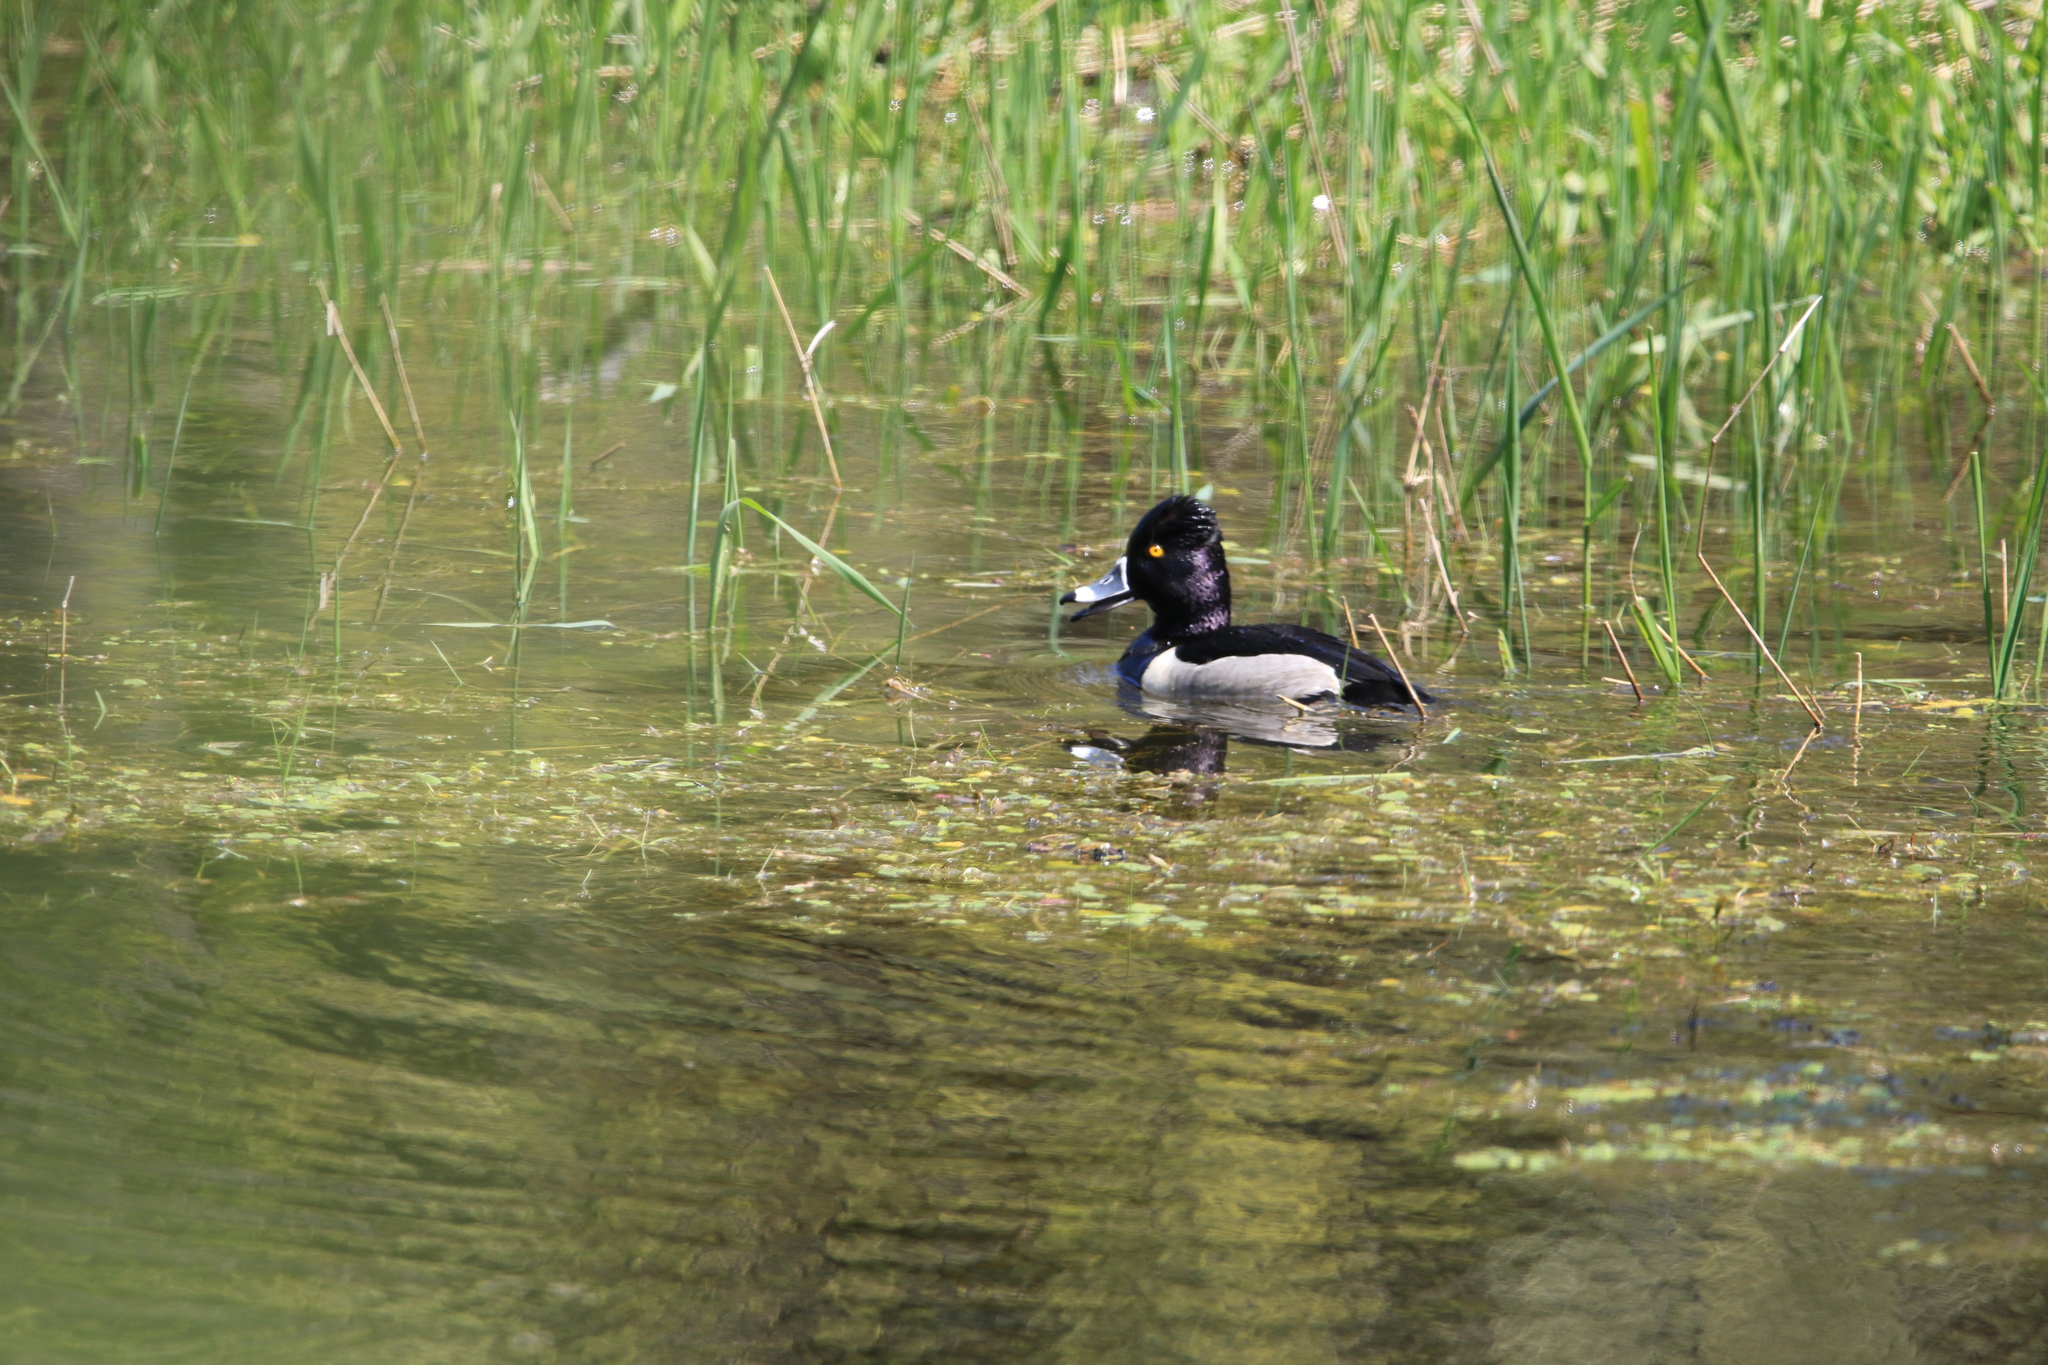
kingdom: Animalia
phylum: Chordata
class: Aves
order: Anseriformes
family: Anatidae
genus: Aythya
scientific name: Aythya collaris
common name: Ring-necked duck
